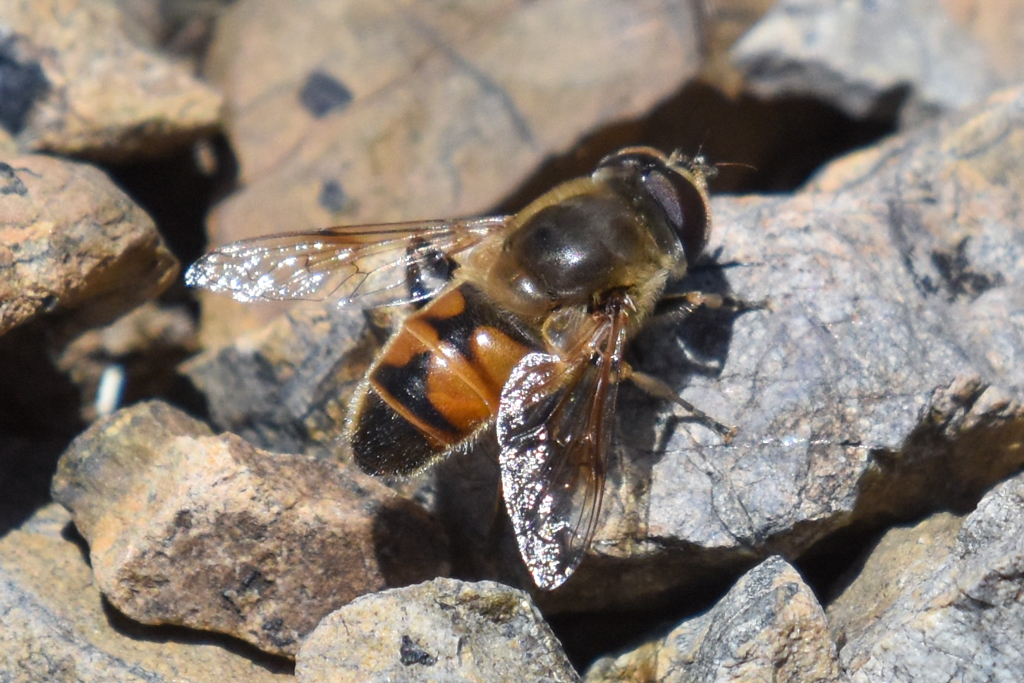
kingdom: Animalia
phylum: Arthropoda
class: Insecta
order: Diptera
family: Syrphidae
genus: Eristalis
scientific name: Eristalis tenax
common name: Drone fly
